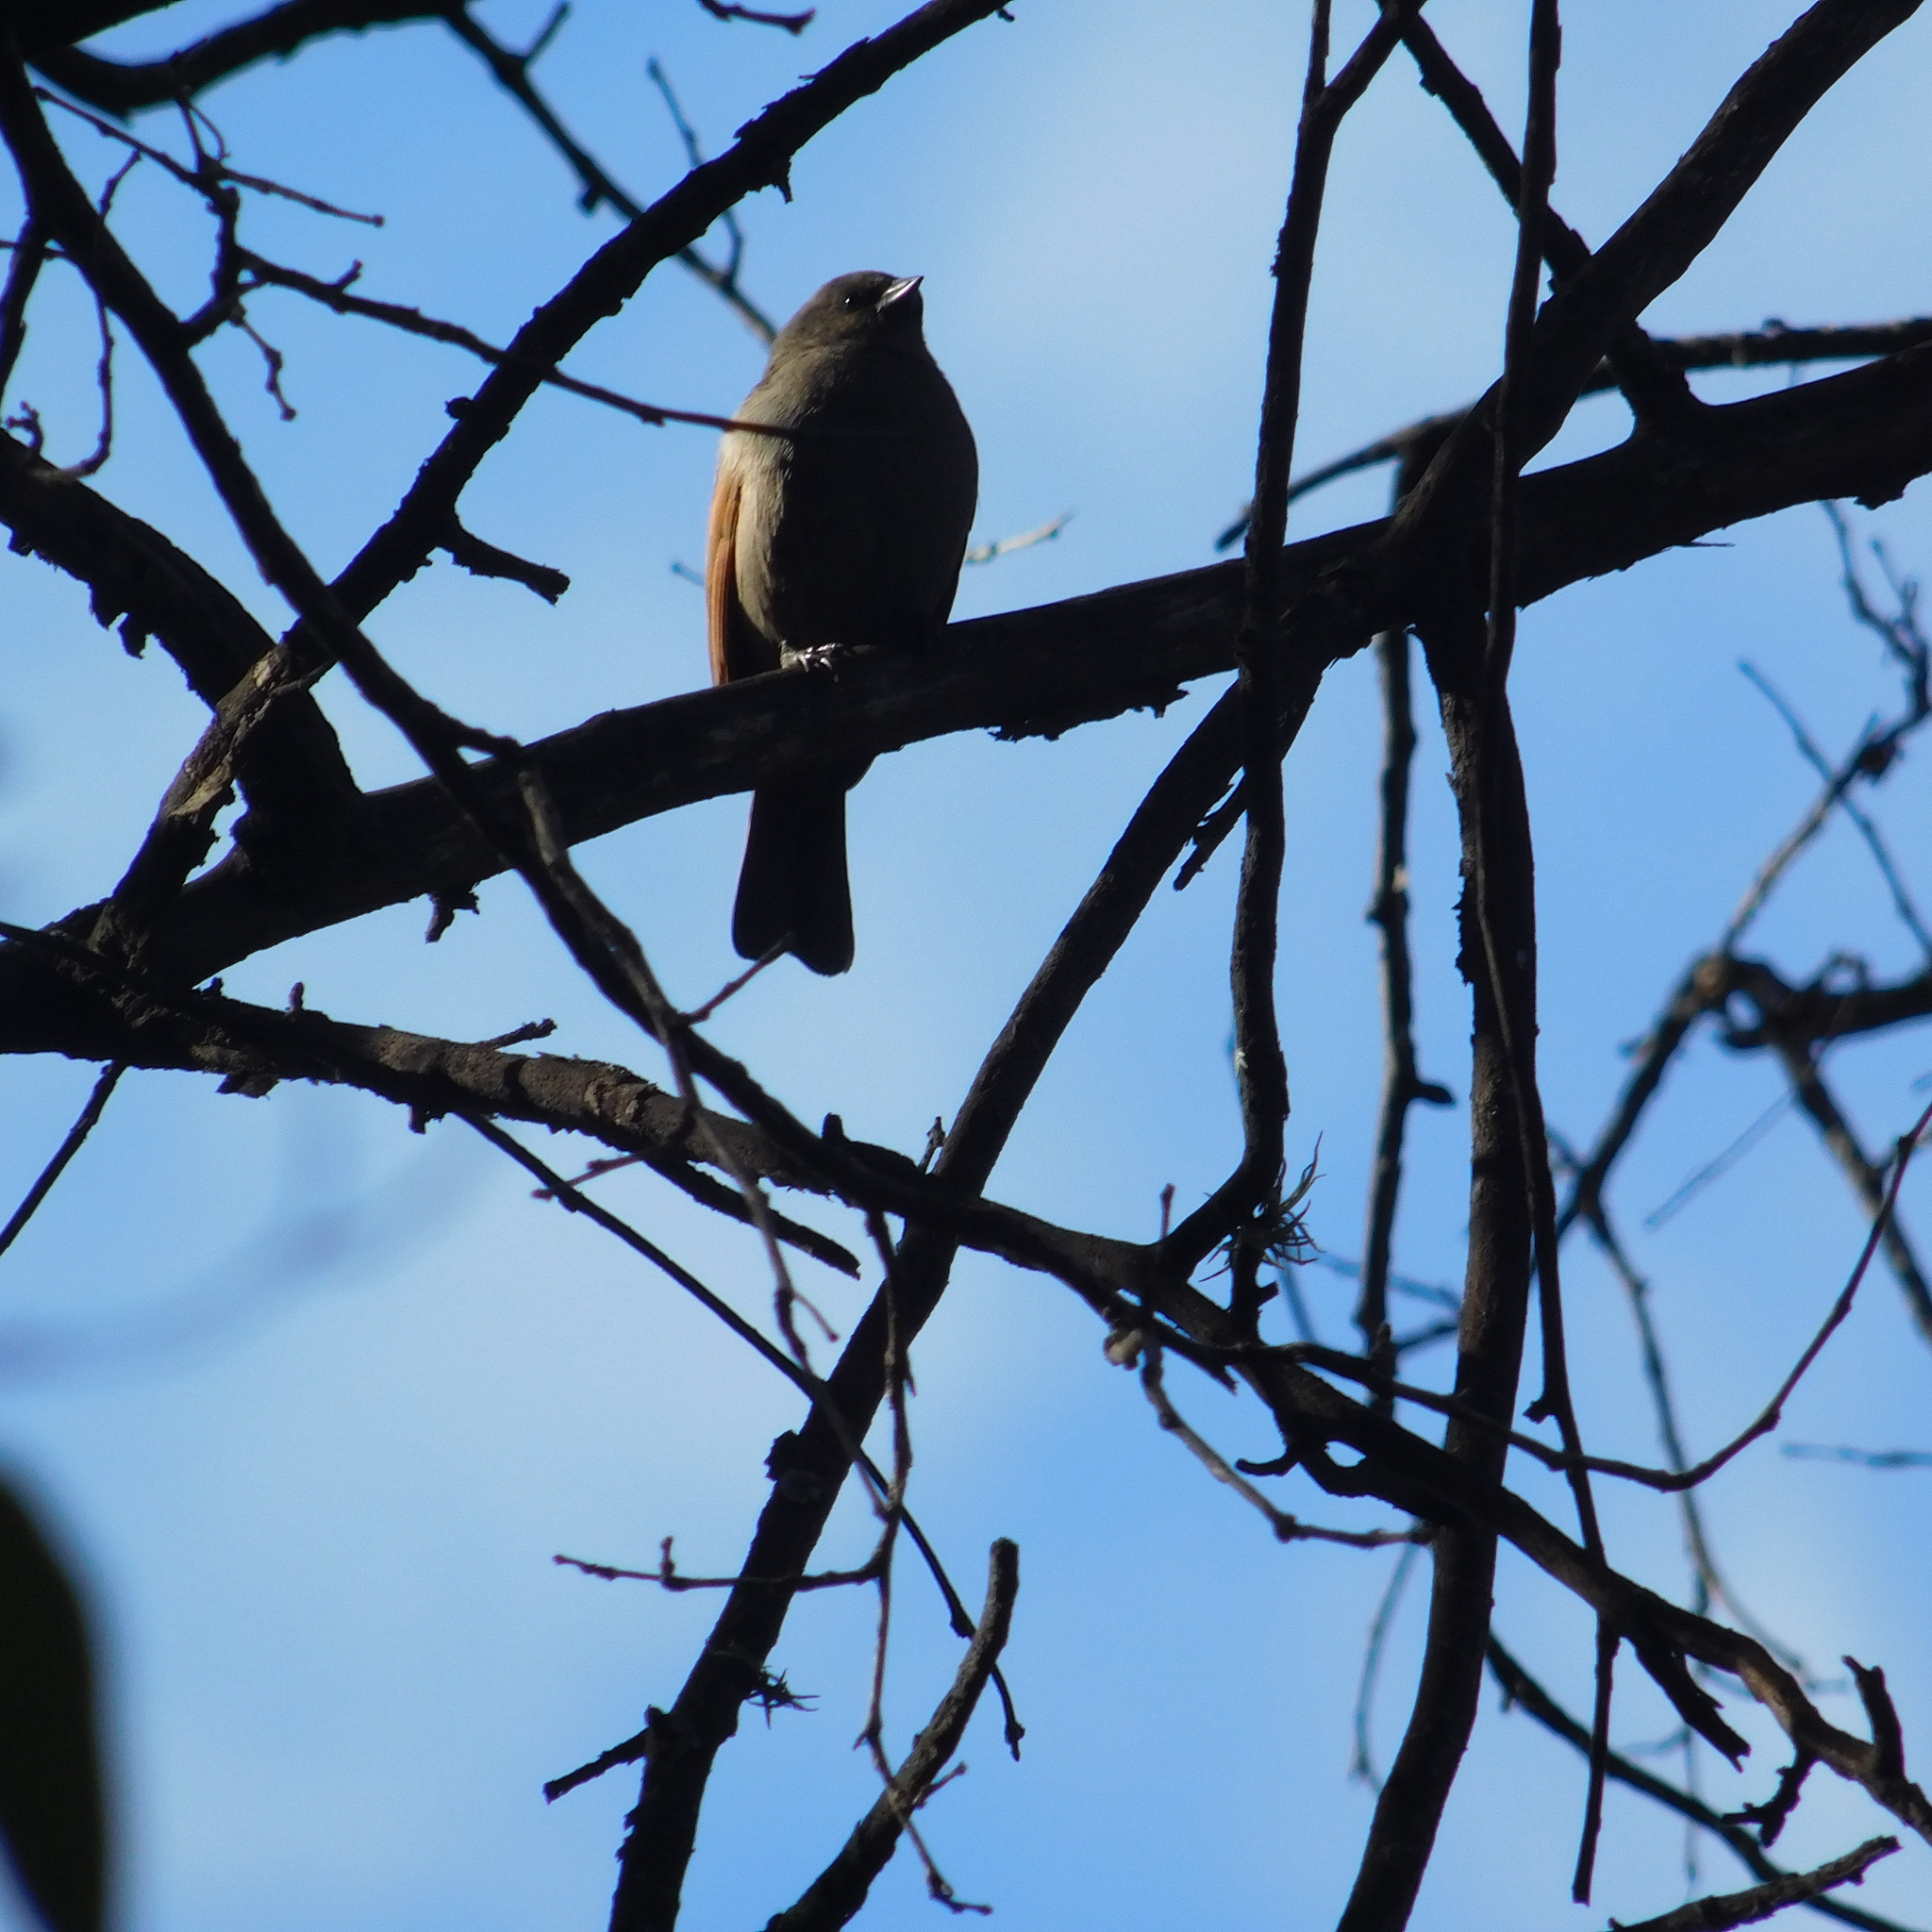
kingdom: Animalia
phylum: Chordata
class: Aves
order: Passeriformes
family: Icteridae
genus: Agelaioides
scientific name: Agelaioides badius
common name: Baywing
